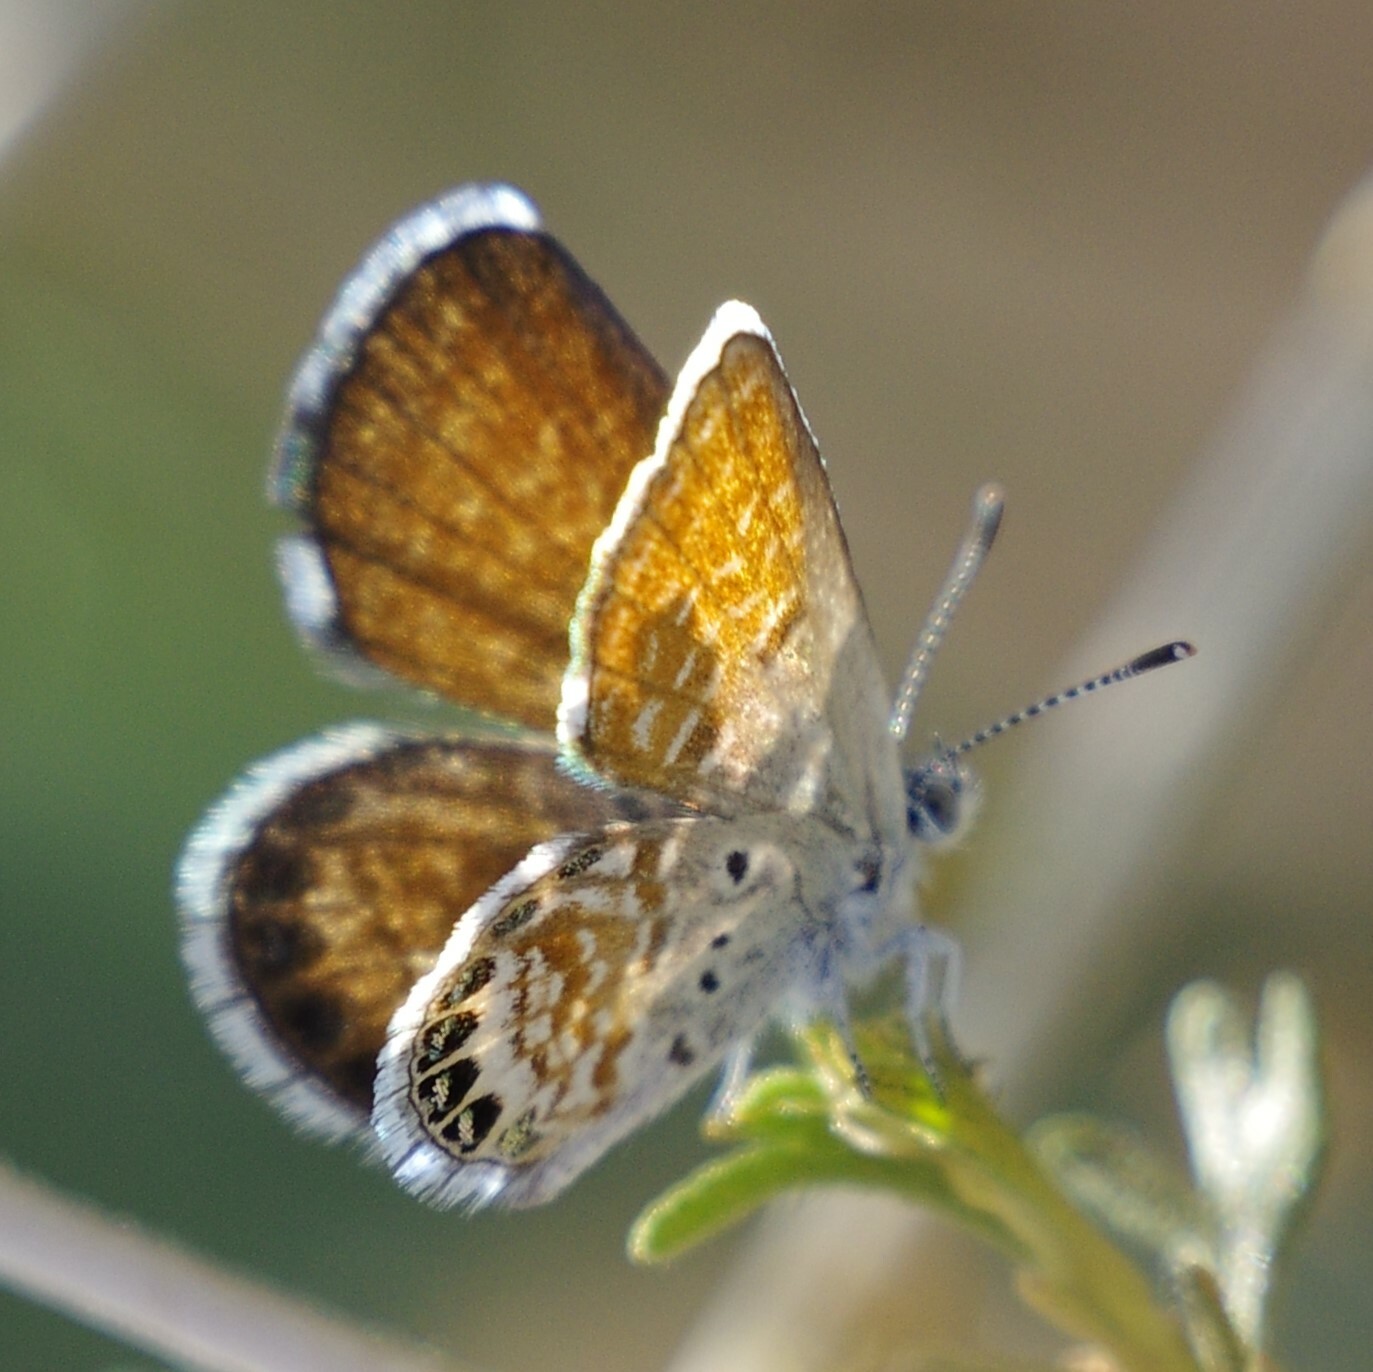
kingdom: Animalia
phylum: Arthropoda
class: Insecta
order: Lepidoptera
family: Lycaenidae
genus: Brephidium
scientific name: Brephidium exilis
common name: Pygmy blue
